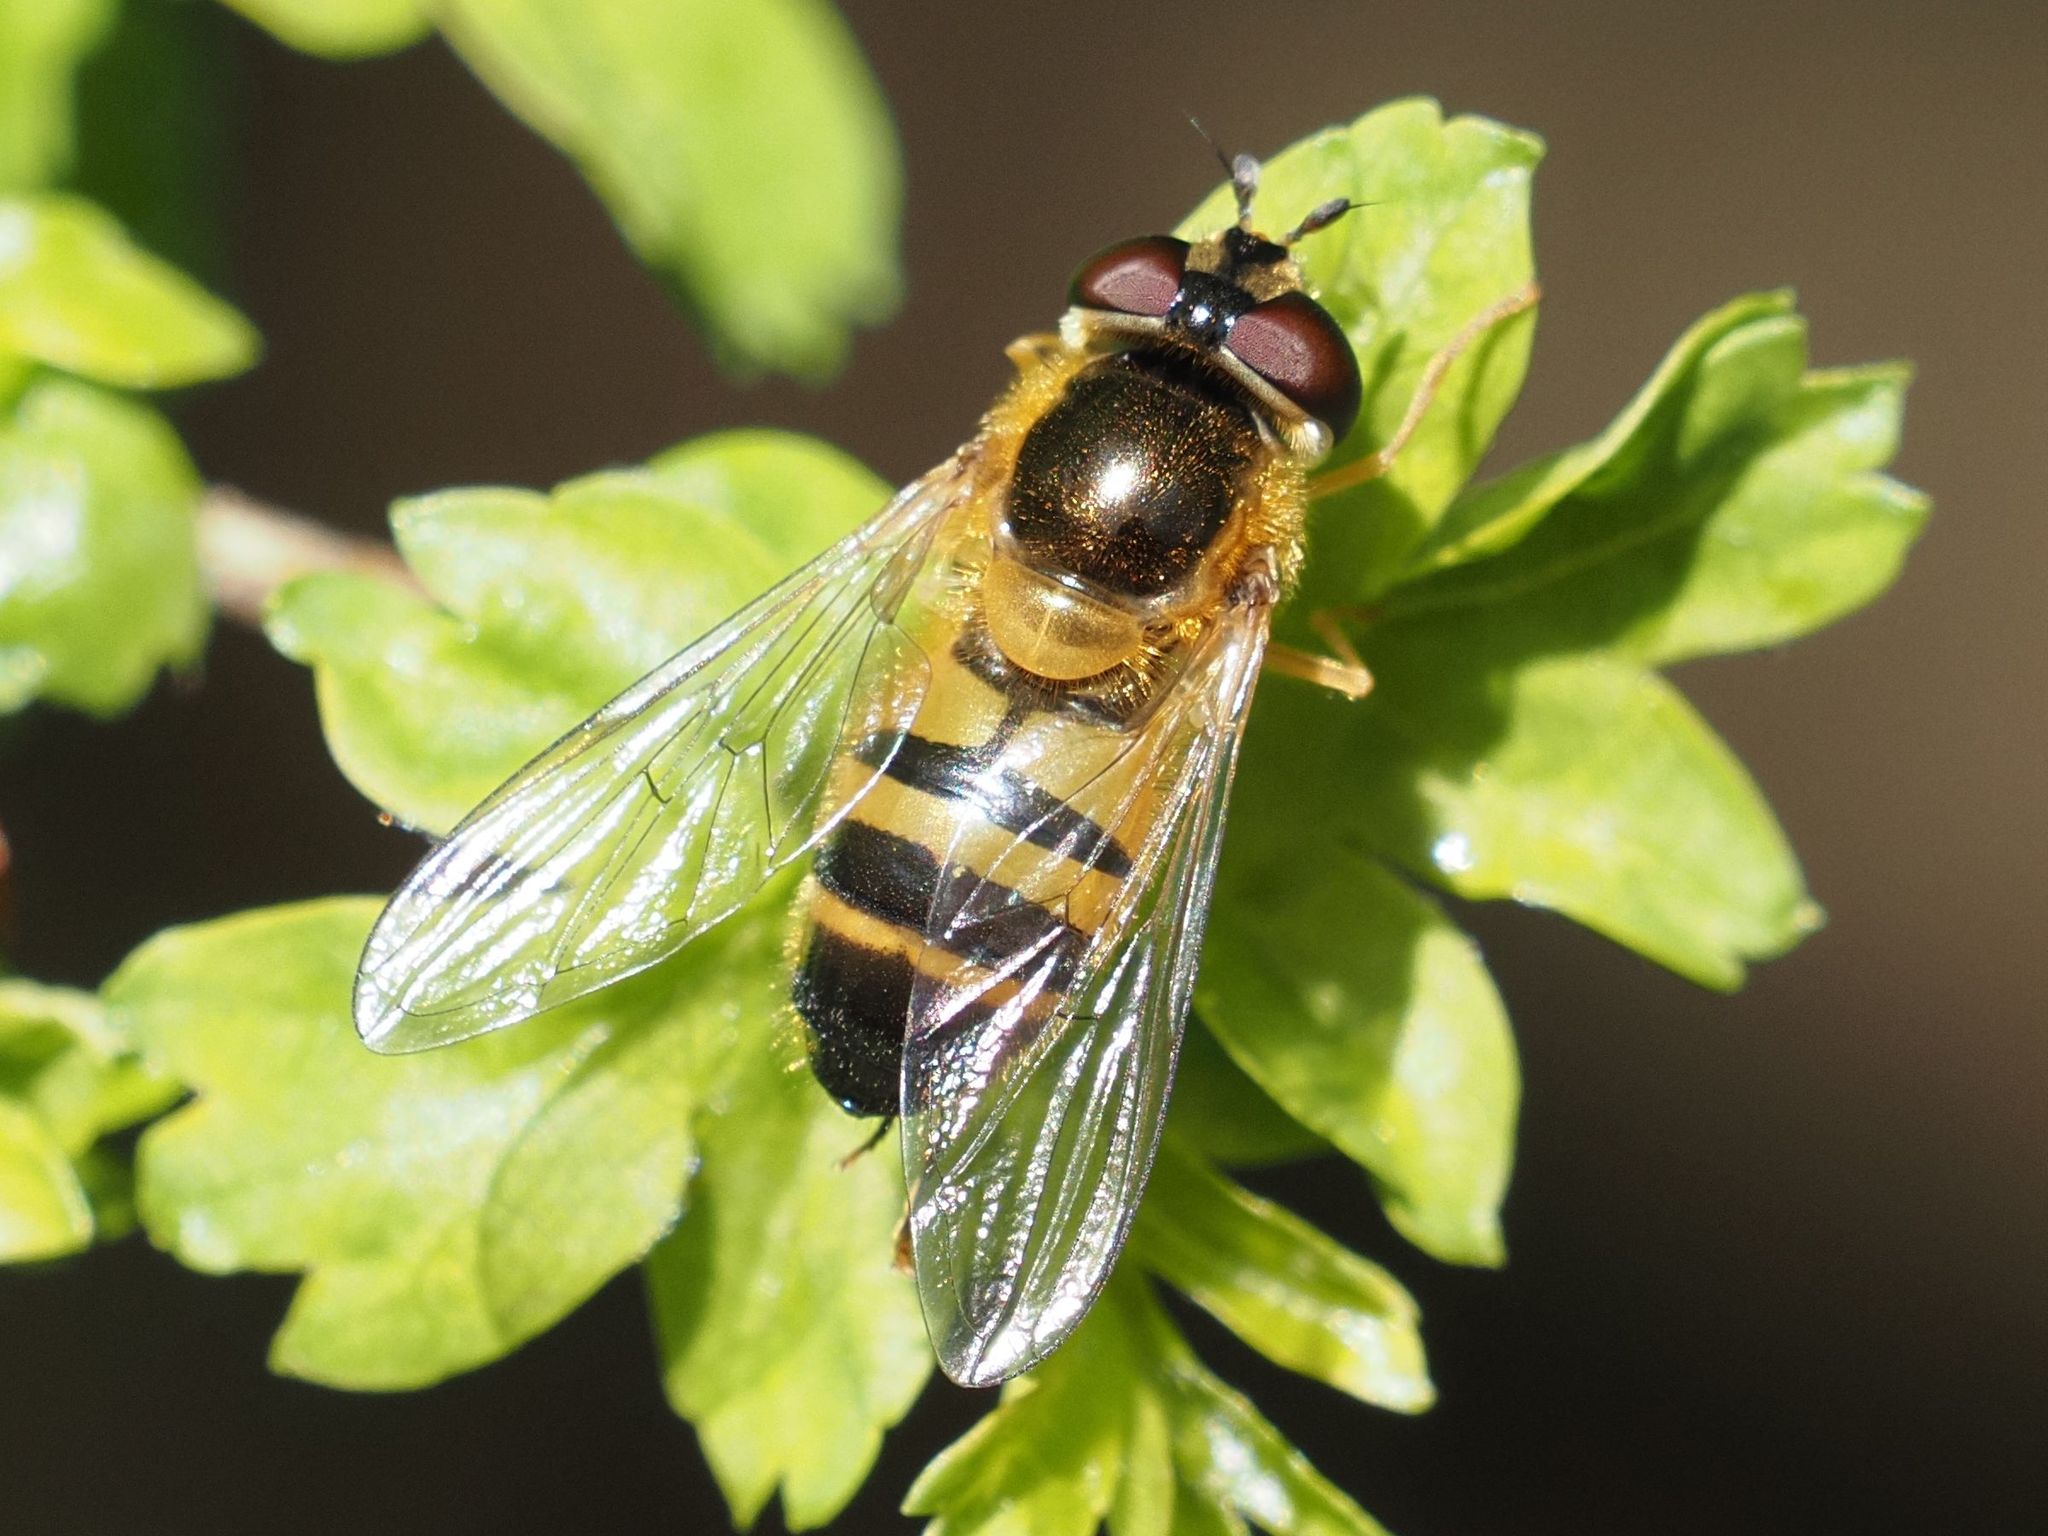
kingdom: Animalia
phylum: Arthropoda
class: Insecta
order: Diptera
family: Syrphidae
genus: Epistrophe
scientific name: Epistrophe eligans
